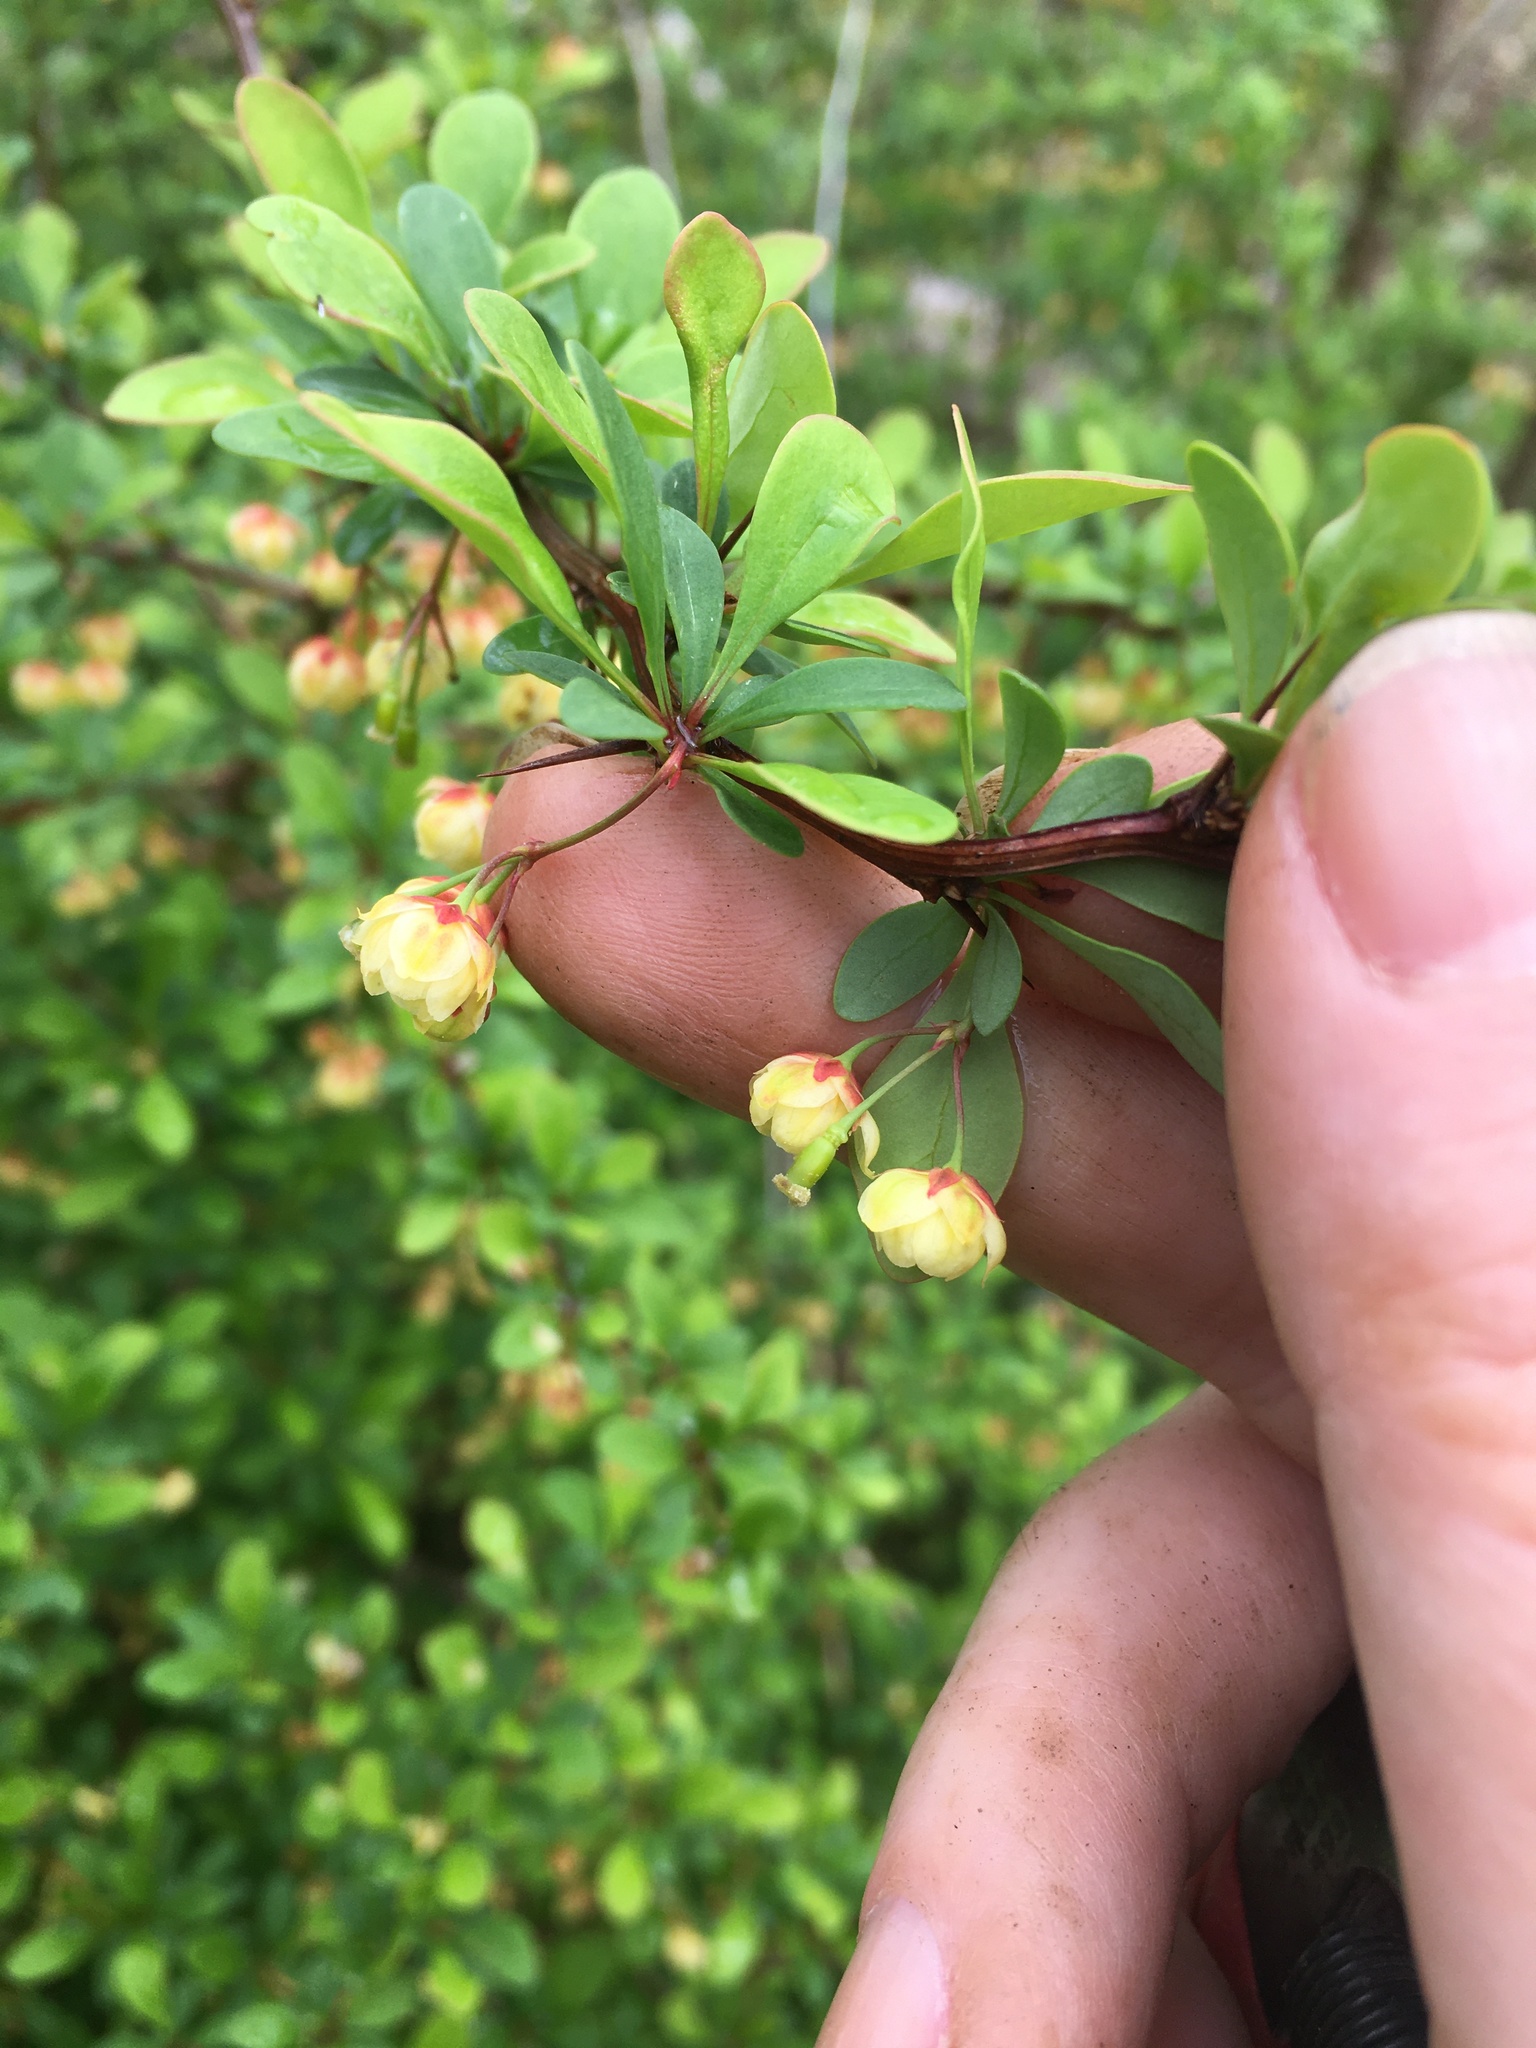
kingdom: Plantae
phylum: Tracheophyta
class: Magnoliopsida
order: Ranunculales
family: Berberidaceae
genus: Berberis
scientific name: Berberis thunbergii
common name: Japanese barberry
